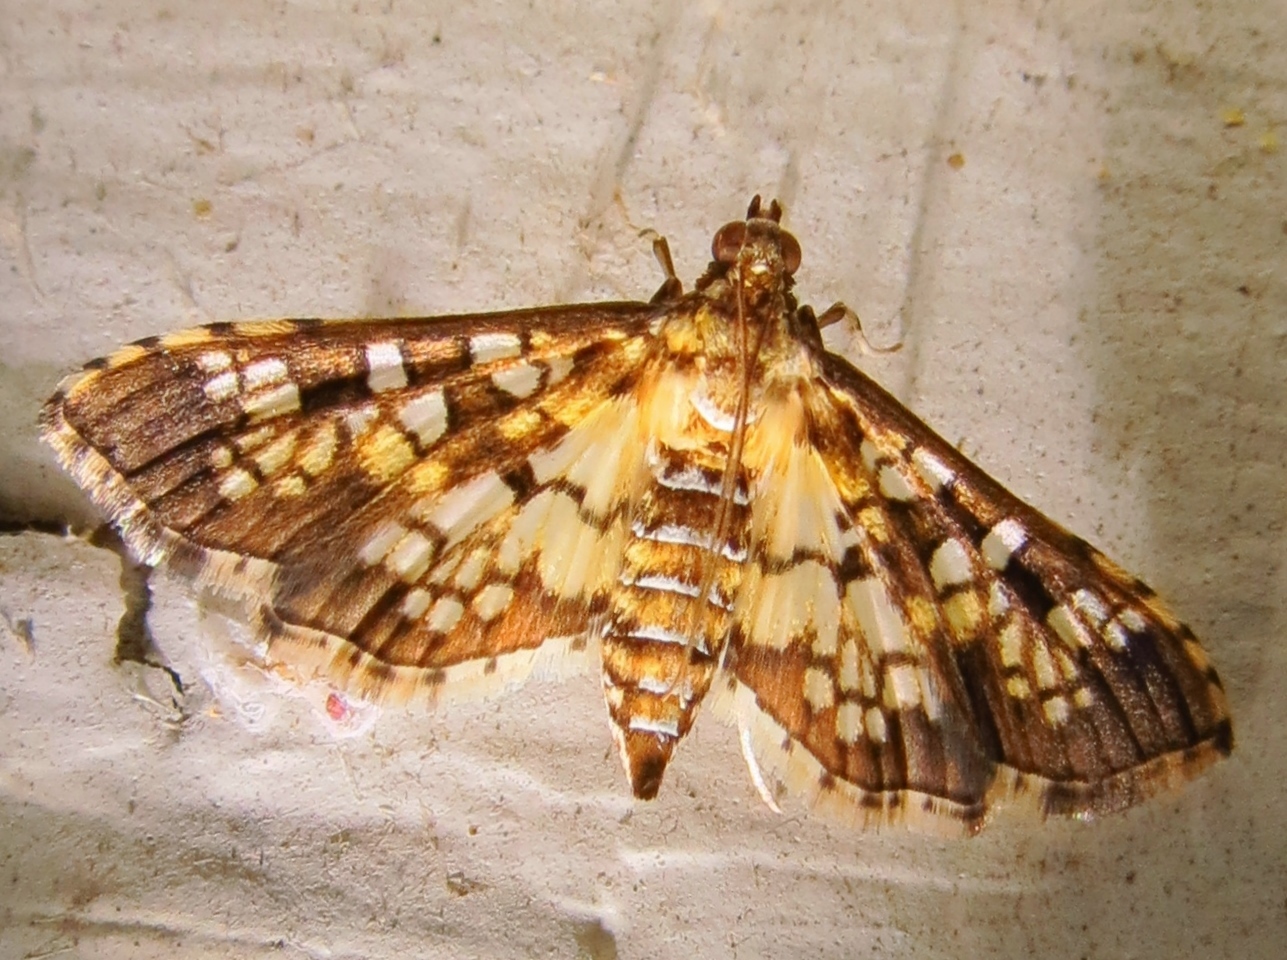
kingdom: Animalia
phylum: Arthropoda
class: Insecta
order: Lepidoptera
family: Crambidae
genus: Samea
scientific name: Samea ecclesialis
